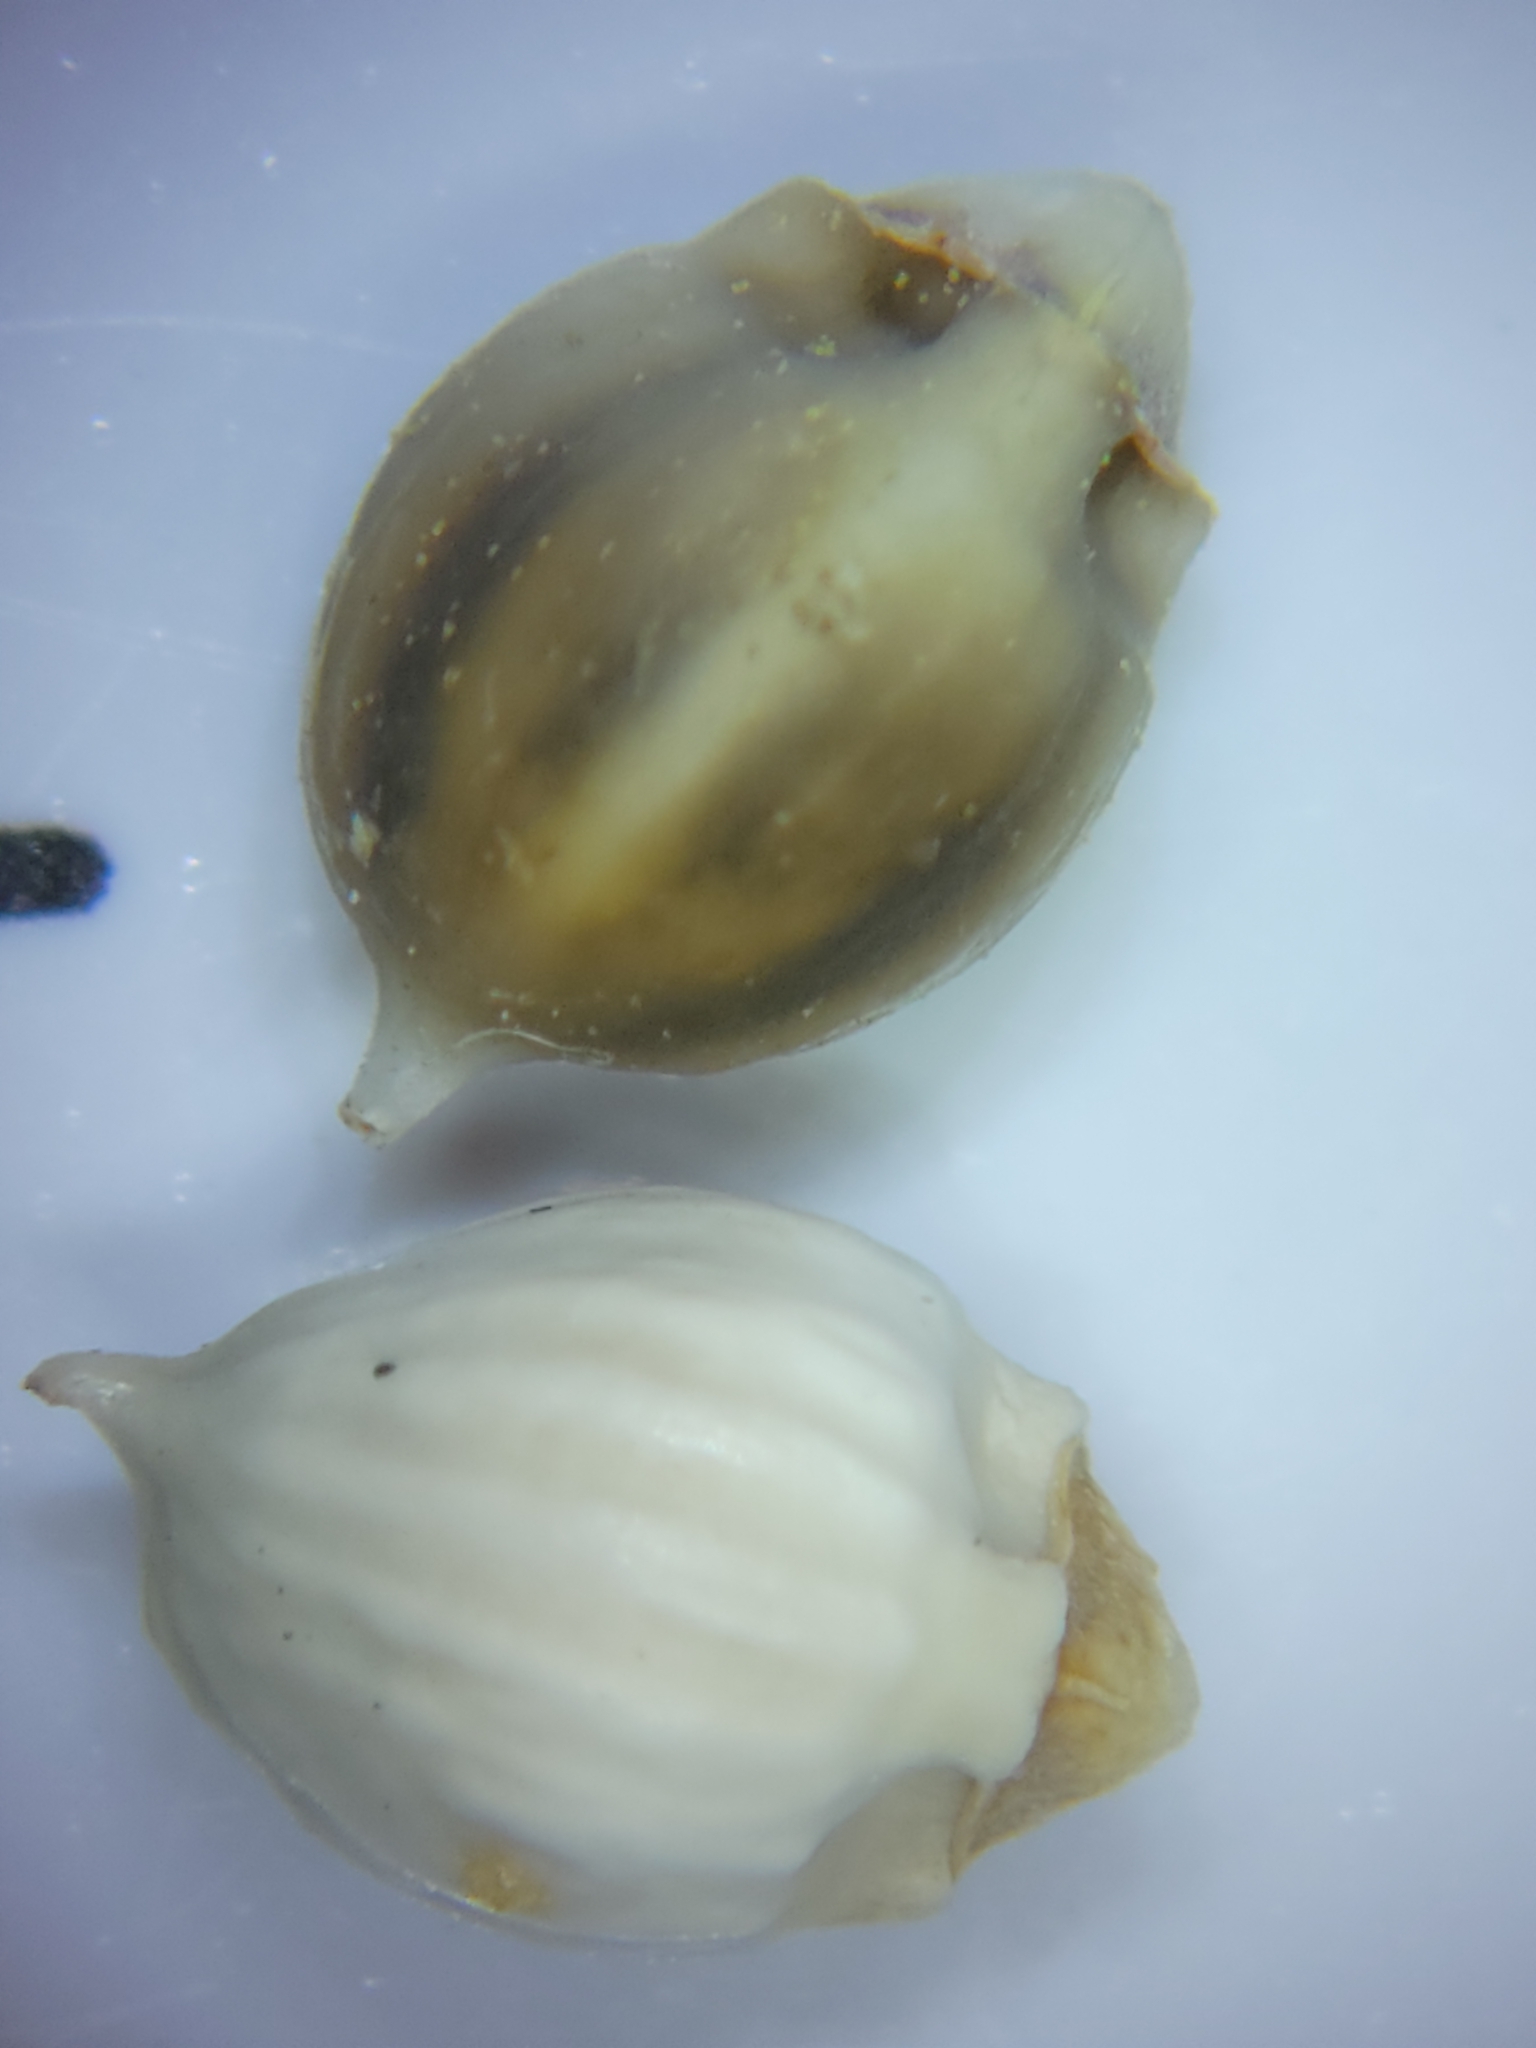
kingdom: Plantae
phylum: Tracheophyta
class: Liliopsida
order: Poales
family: Cyperaceae
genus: Scleria
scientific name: Scleria baldwinii
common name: Baldwin's nutrush
